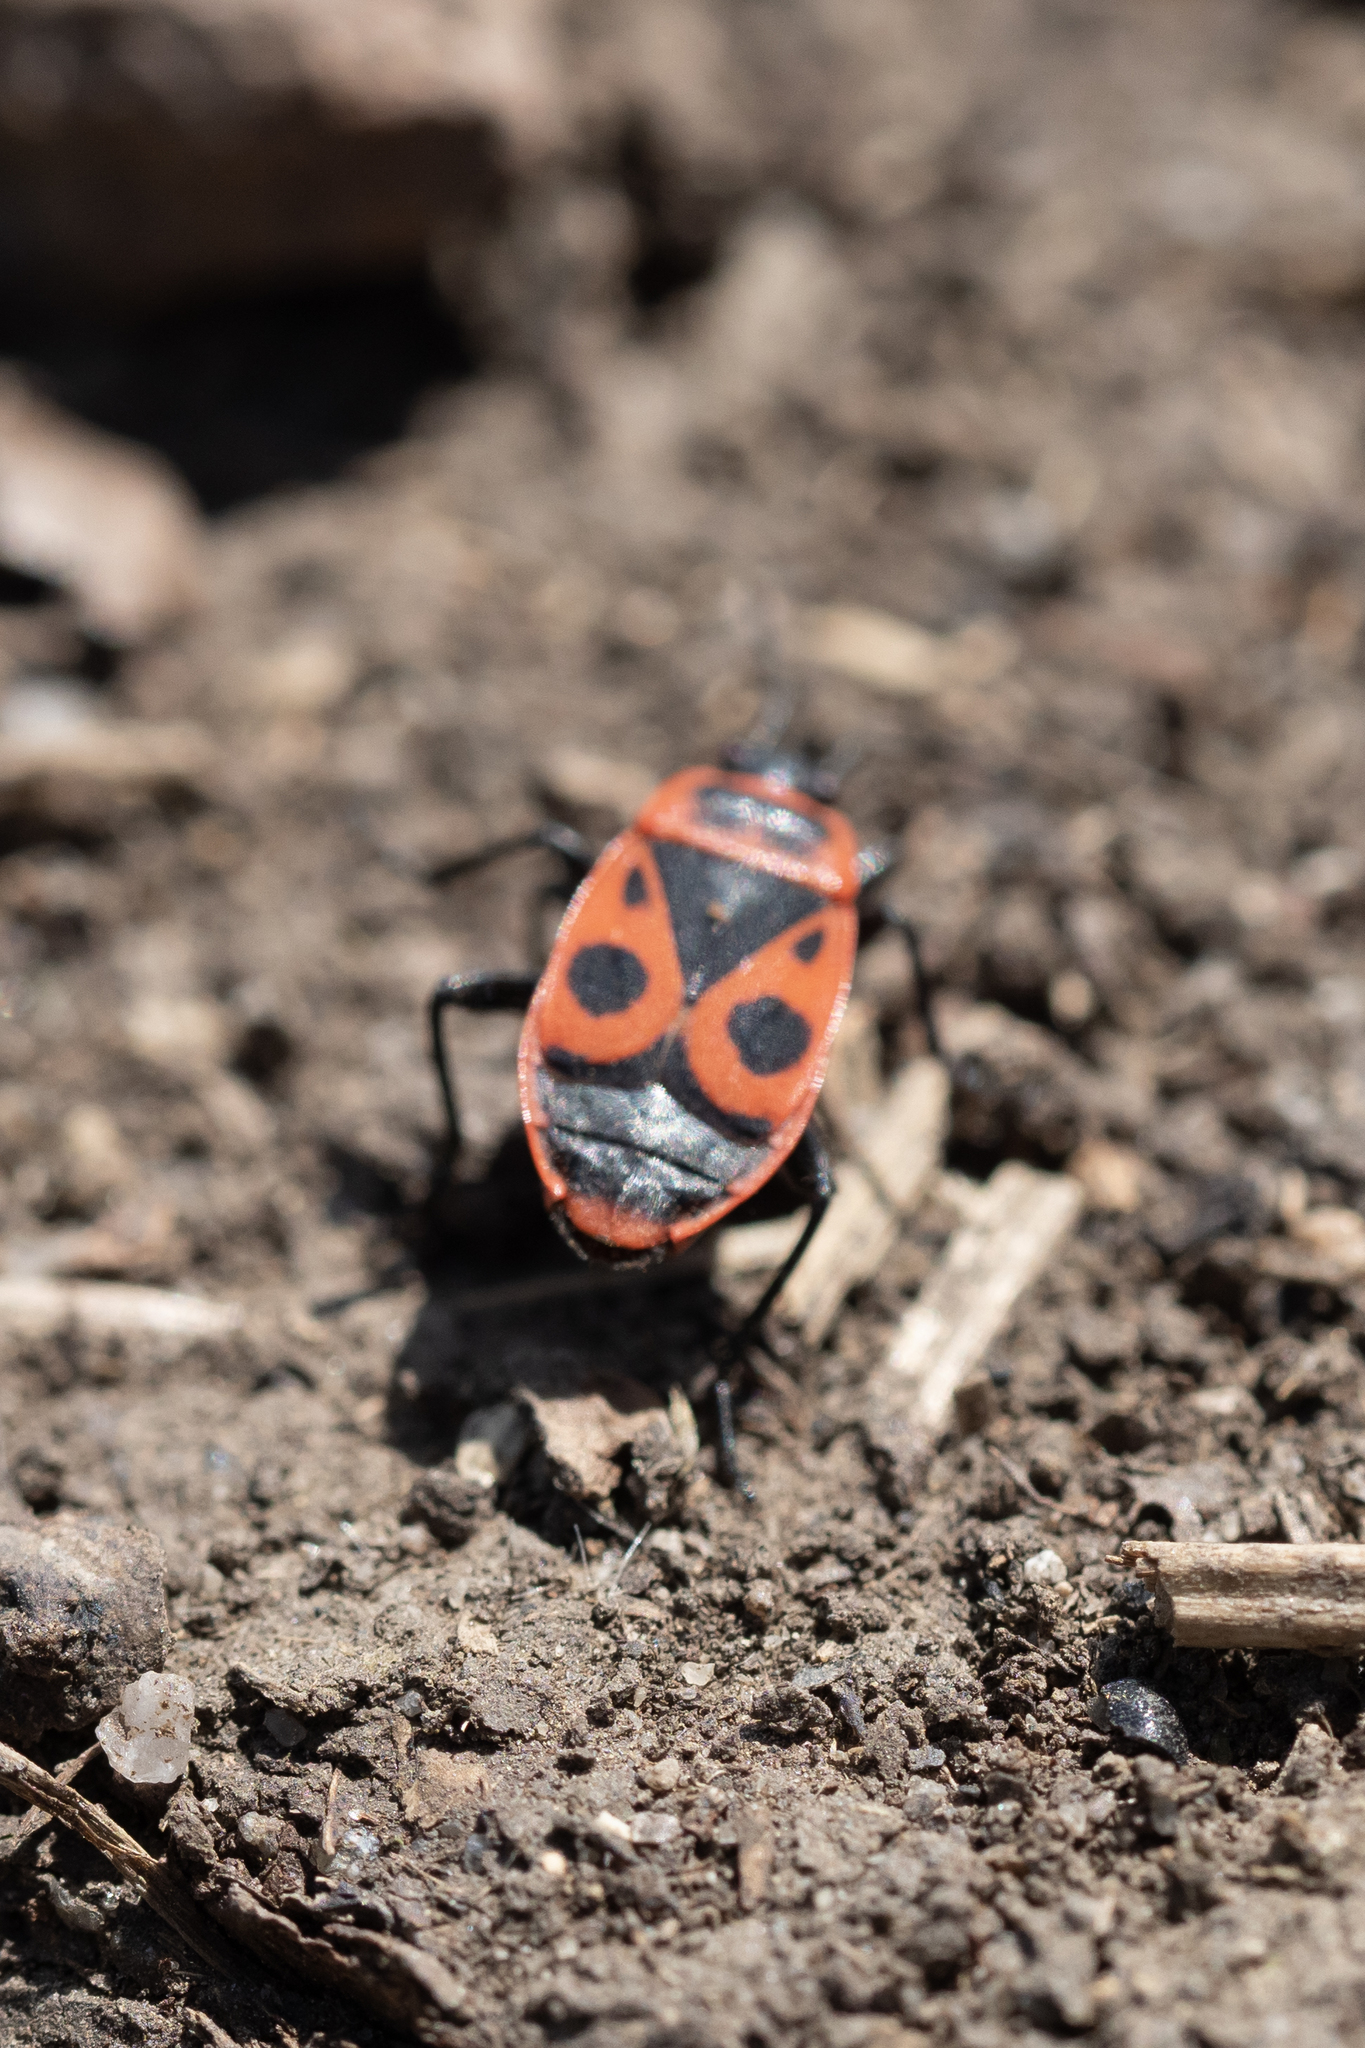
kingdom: Animalia
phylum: Arthropoda
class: Insecta
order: Hemiptera
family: Pyrrhocoridae
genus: Pyrrhocoris
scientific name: Pyrrhocoris apterus
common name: Firebug
